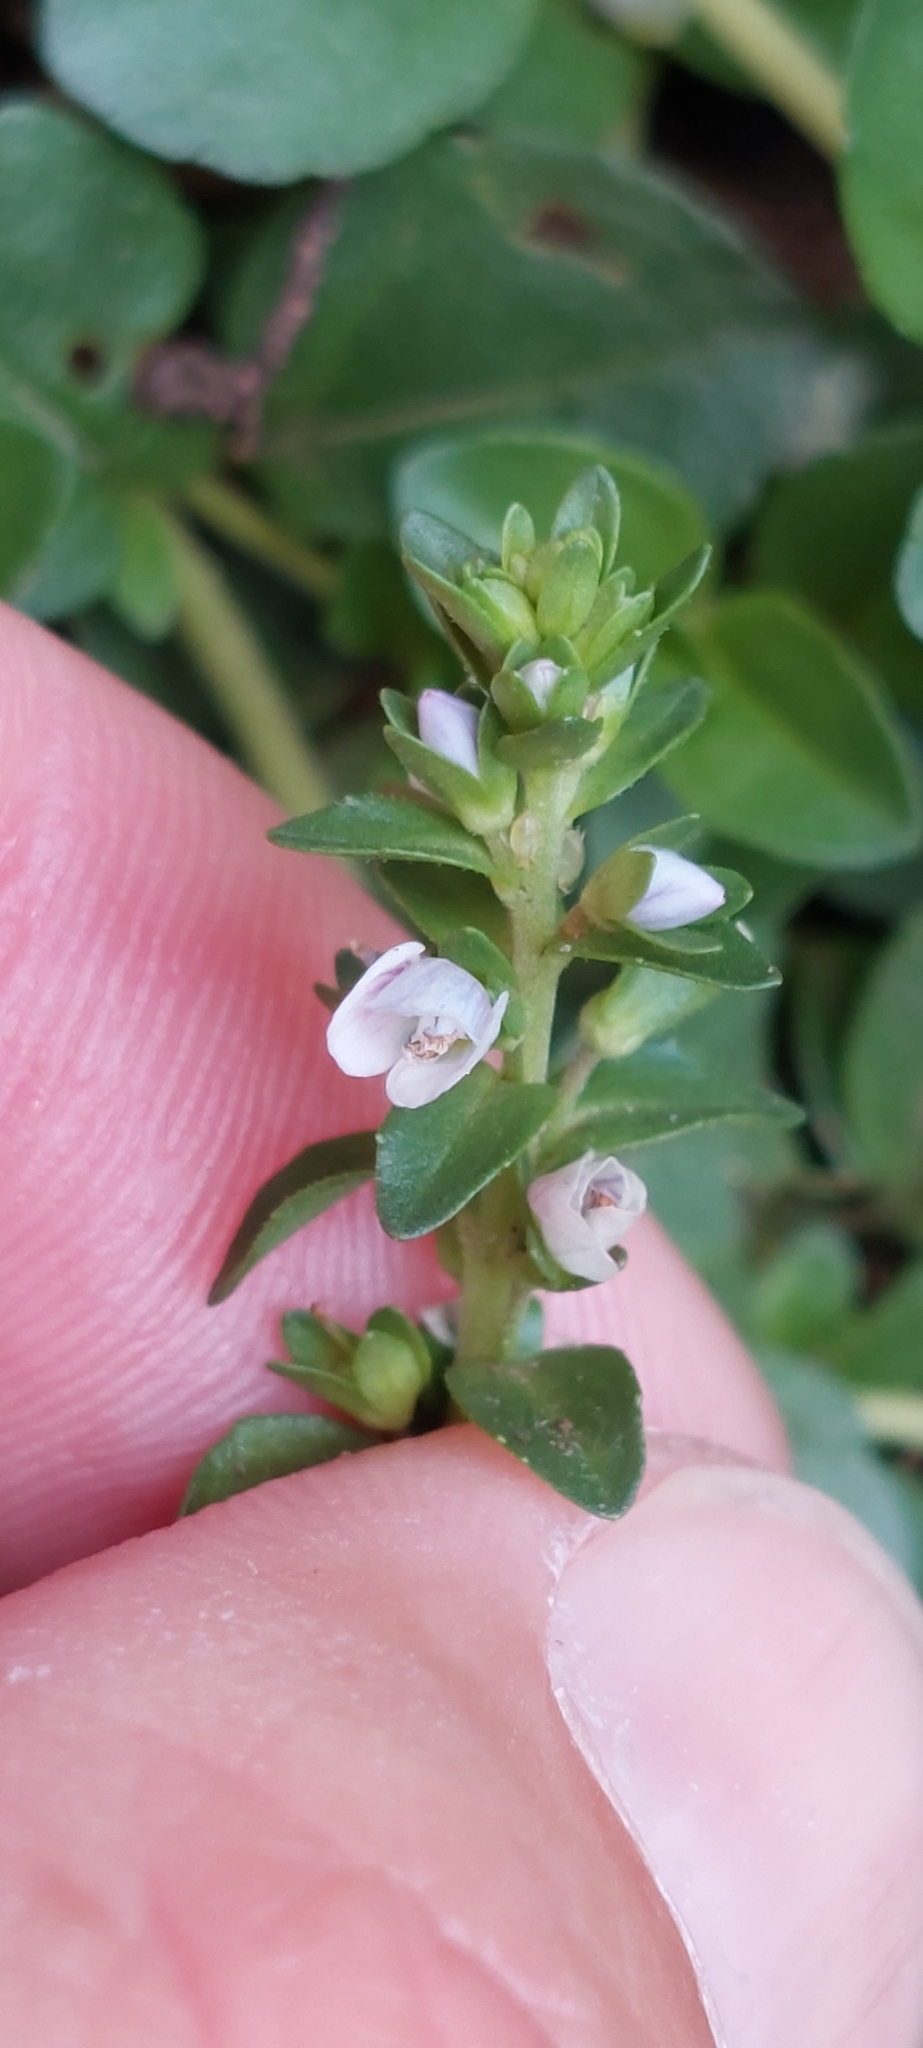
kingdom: Plantae
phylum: Tracheophyta
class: Magnoliopsida
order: Lamiales
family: Plantaginaceae
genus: Veronica
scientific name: Veronica serpyllifolia
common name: Thyme-leaved speedwell
